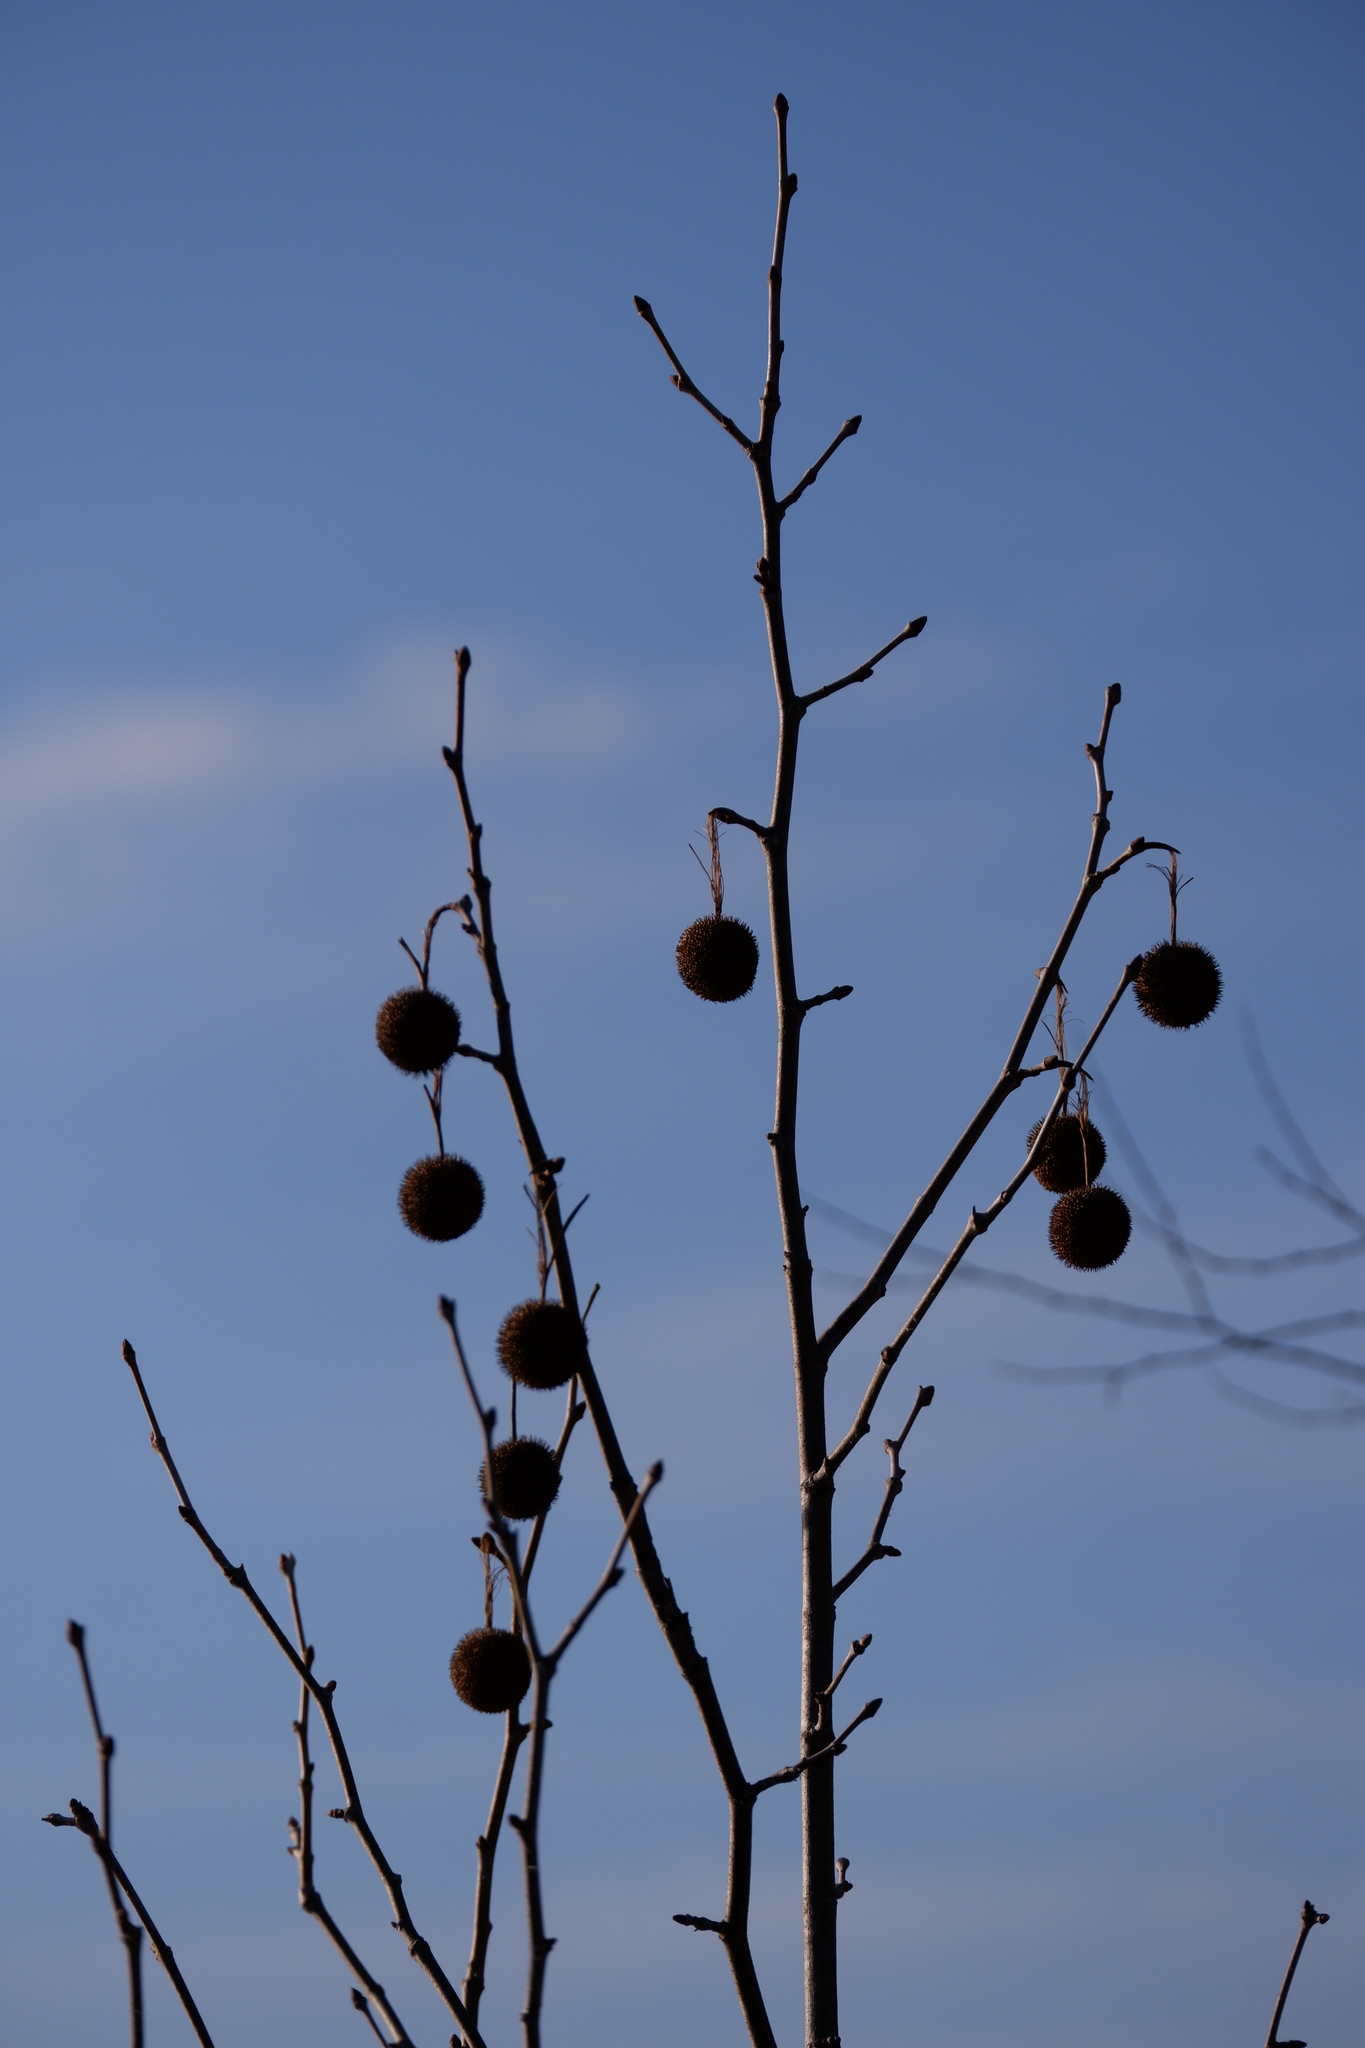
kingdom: Plantae
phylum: Tracheophyta
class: Magnoliopsida
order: Proteales
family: Platanaceae
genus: Platanus
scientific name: Platanus occidentalis
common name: American sycamore
